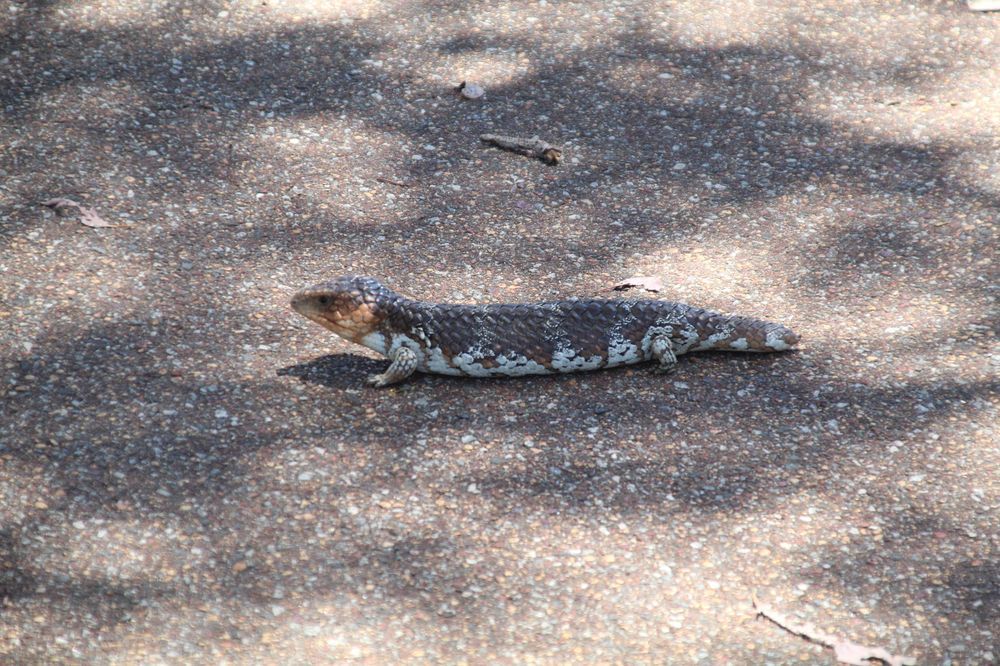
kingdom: Animalia
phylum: Chordata
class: Squamata
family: Scincidae
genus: Tiliqua
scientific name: Tiliqua rugosa
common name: Pinecone lizard
